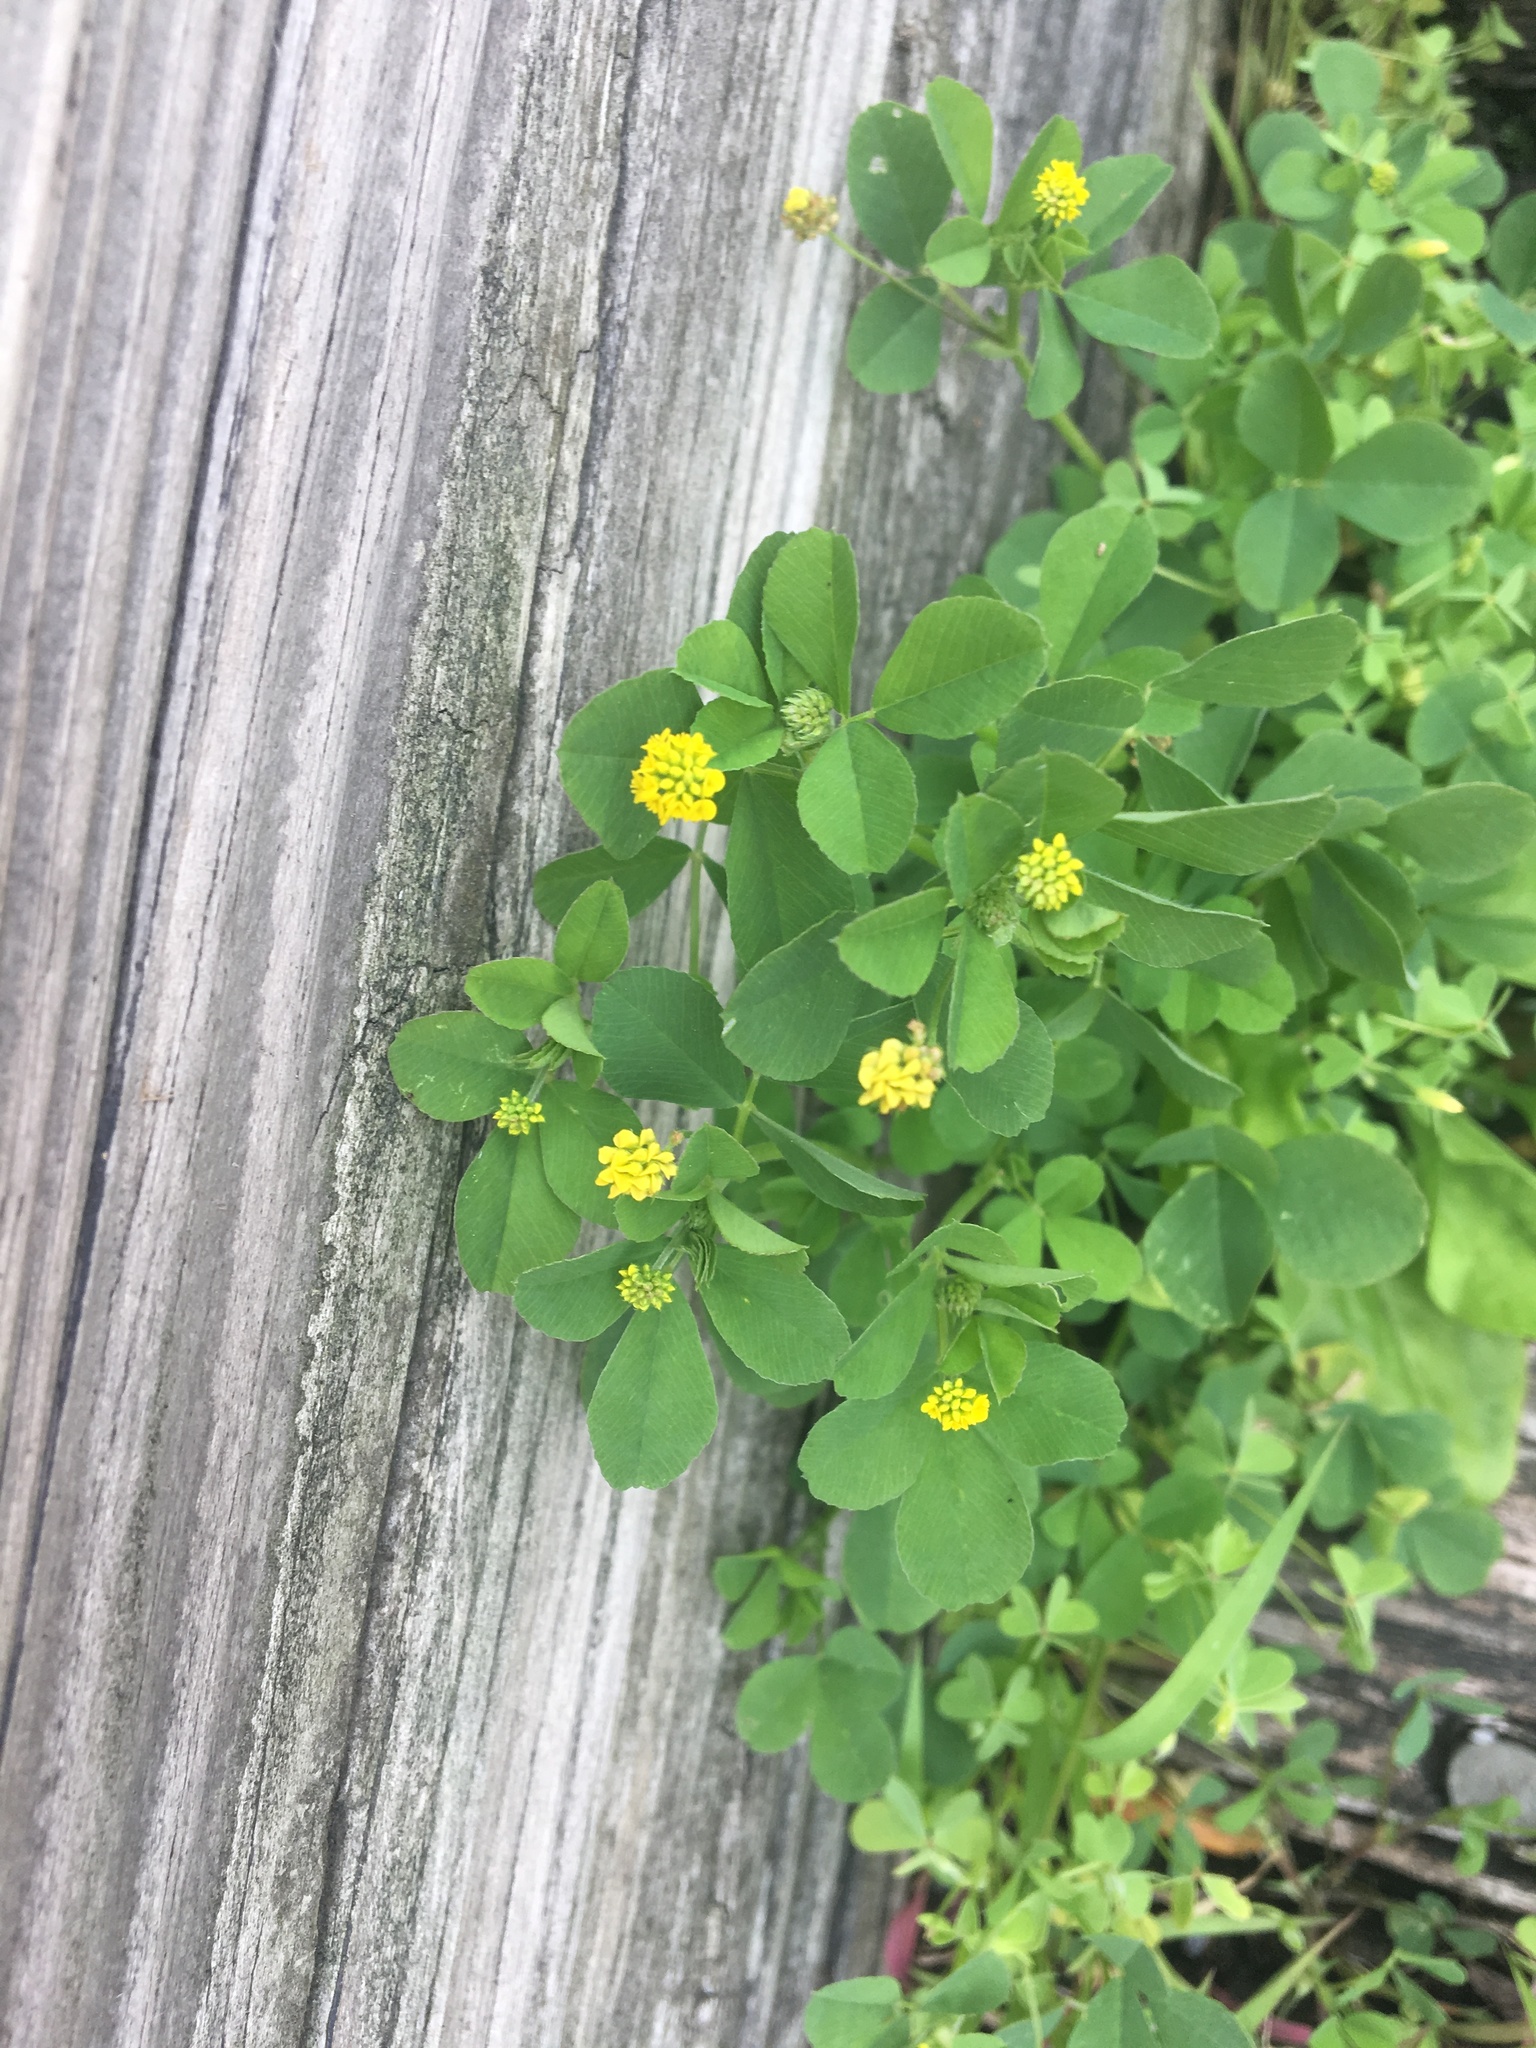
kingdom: Plantae
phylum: Tracheophyta
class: Magnoliopsida
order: Fabales
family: Fabaceae
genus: Medicago
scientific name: Medicago lupulina
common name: Black medick
